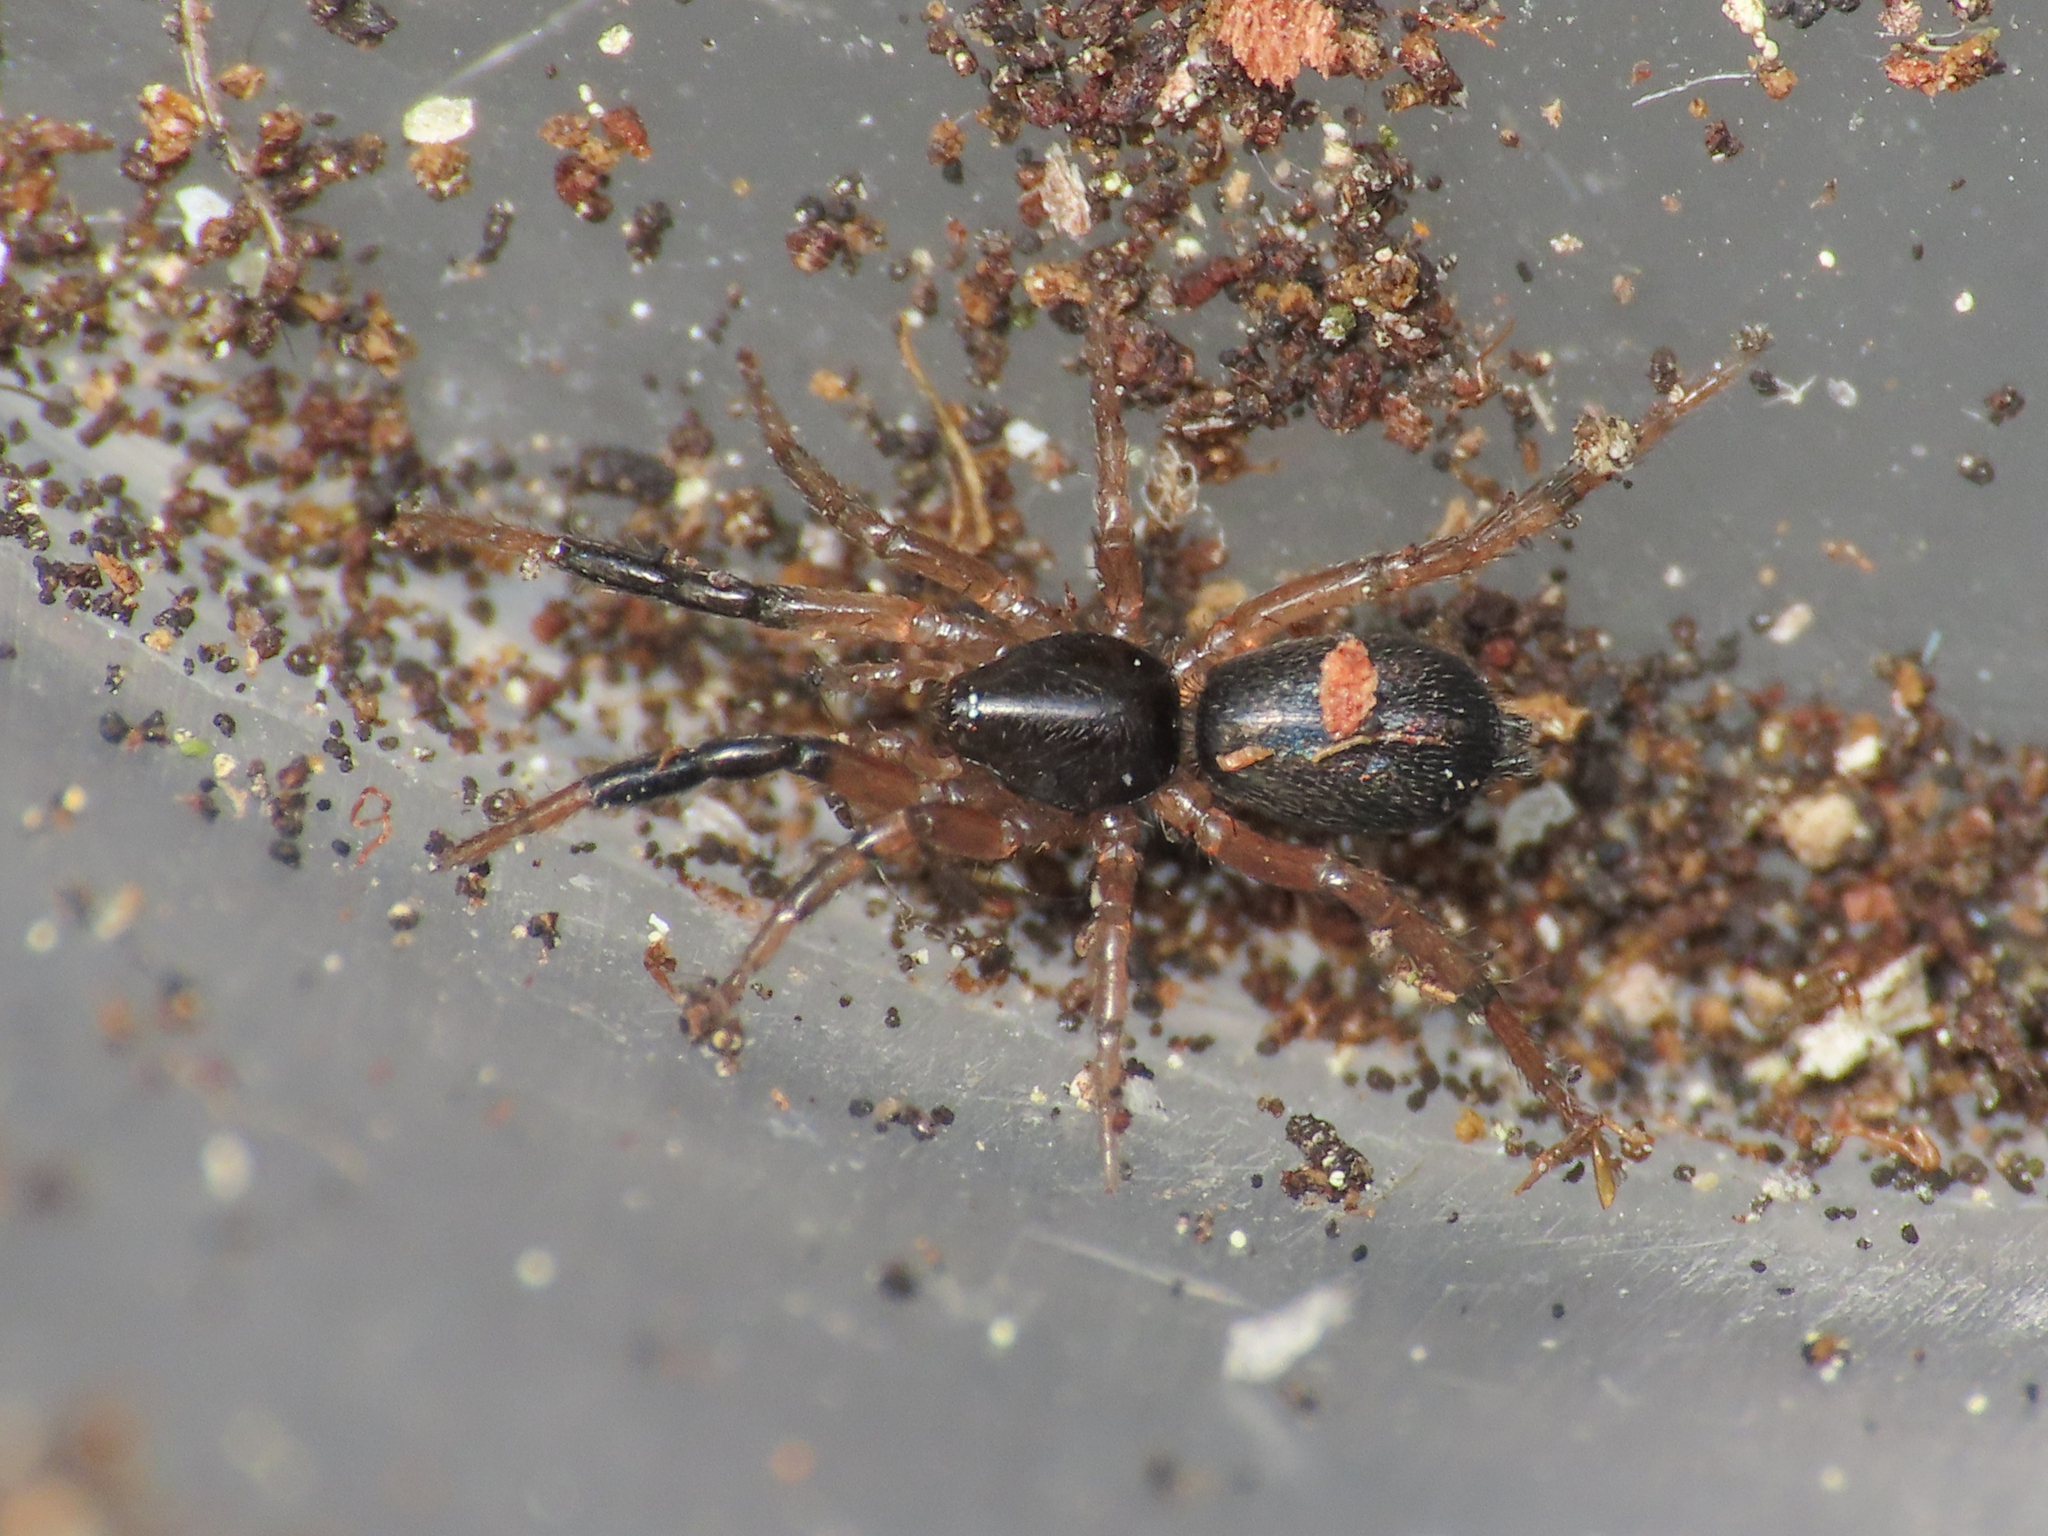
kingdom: Animalia
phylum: Arthropoda
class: Arachnida
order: Araneae
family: Gnaphosidae
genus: Setaphis
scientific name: Setaphis carmeli
